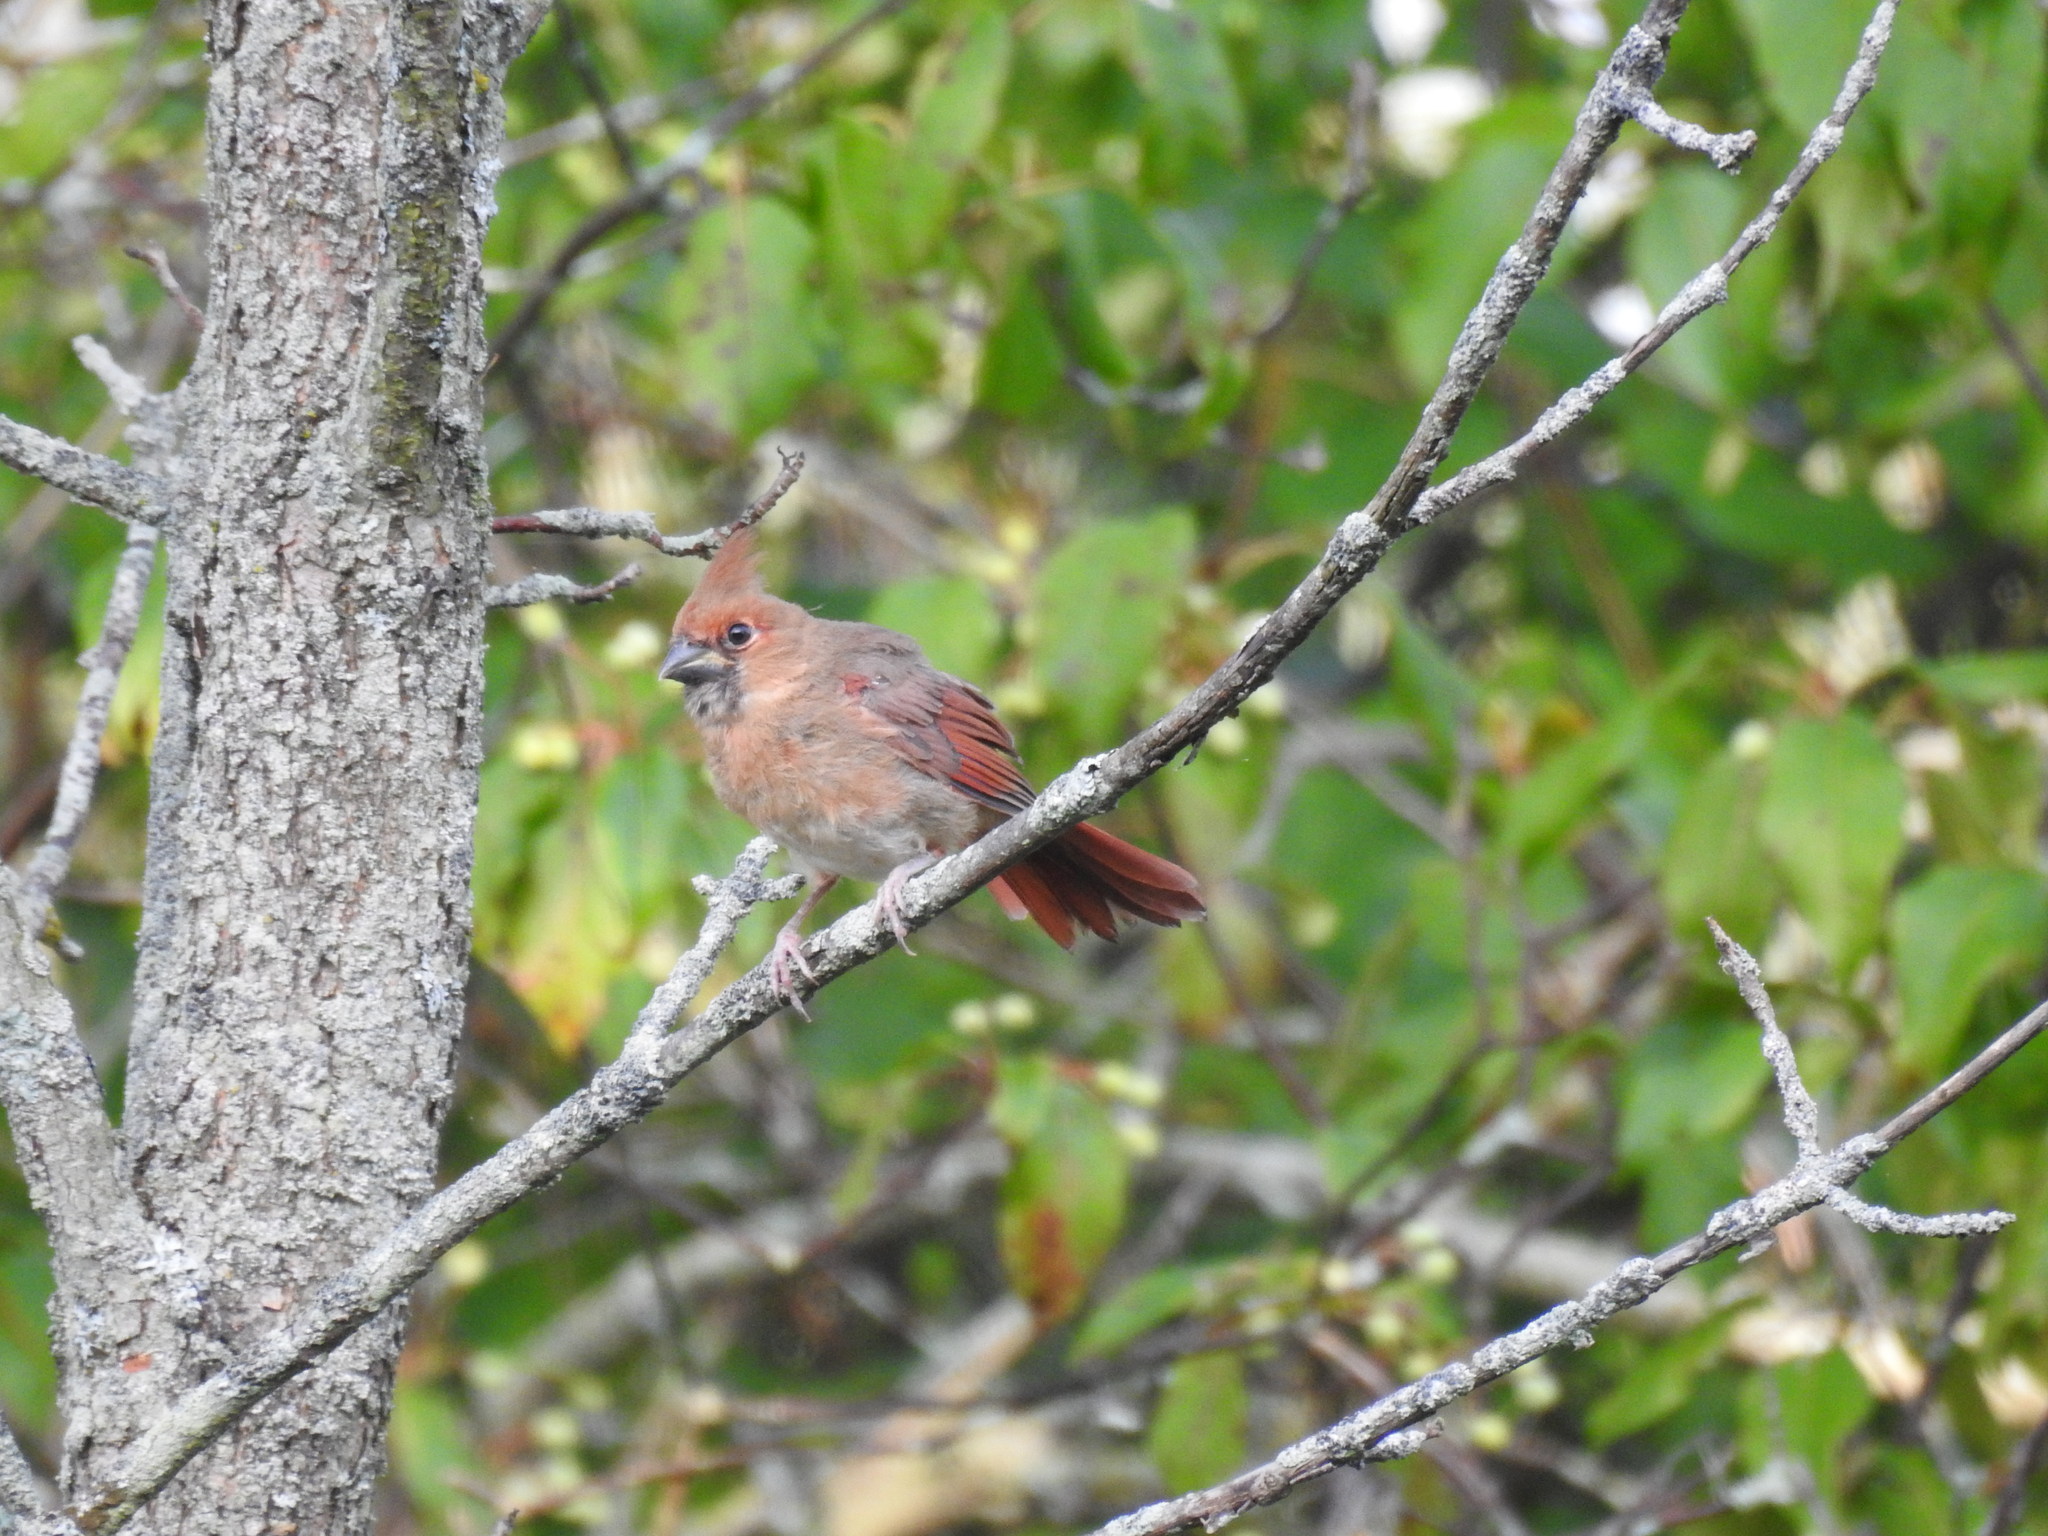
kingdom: Animalia
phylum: Chordata
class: Aves
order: Passeriformes
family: Cardinalidae
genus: Cardinalis
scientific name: Cardinalis cardinalis
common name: Northern cardinal
